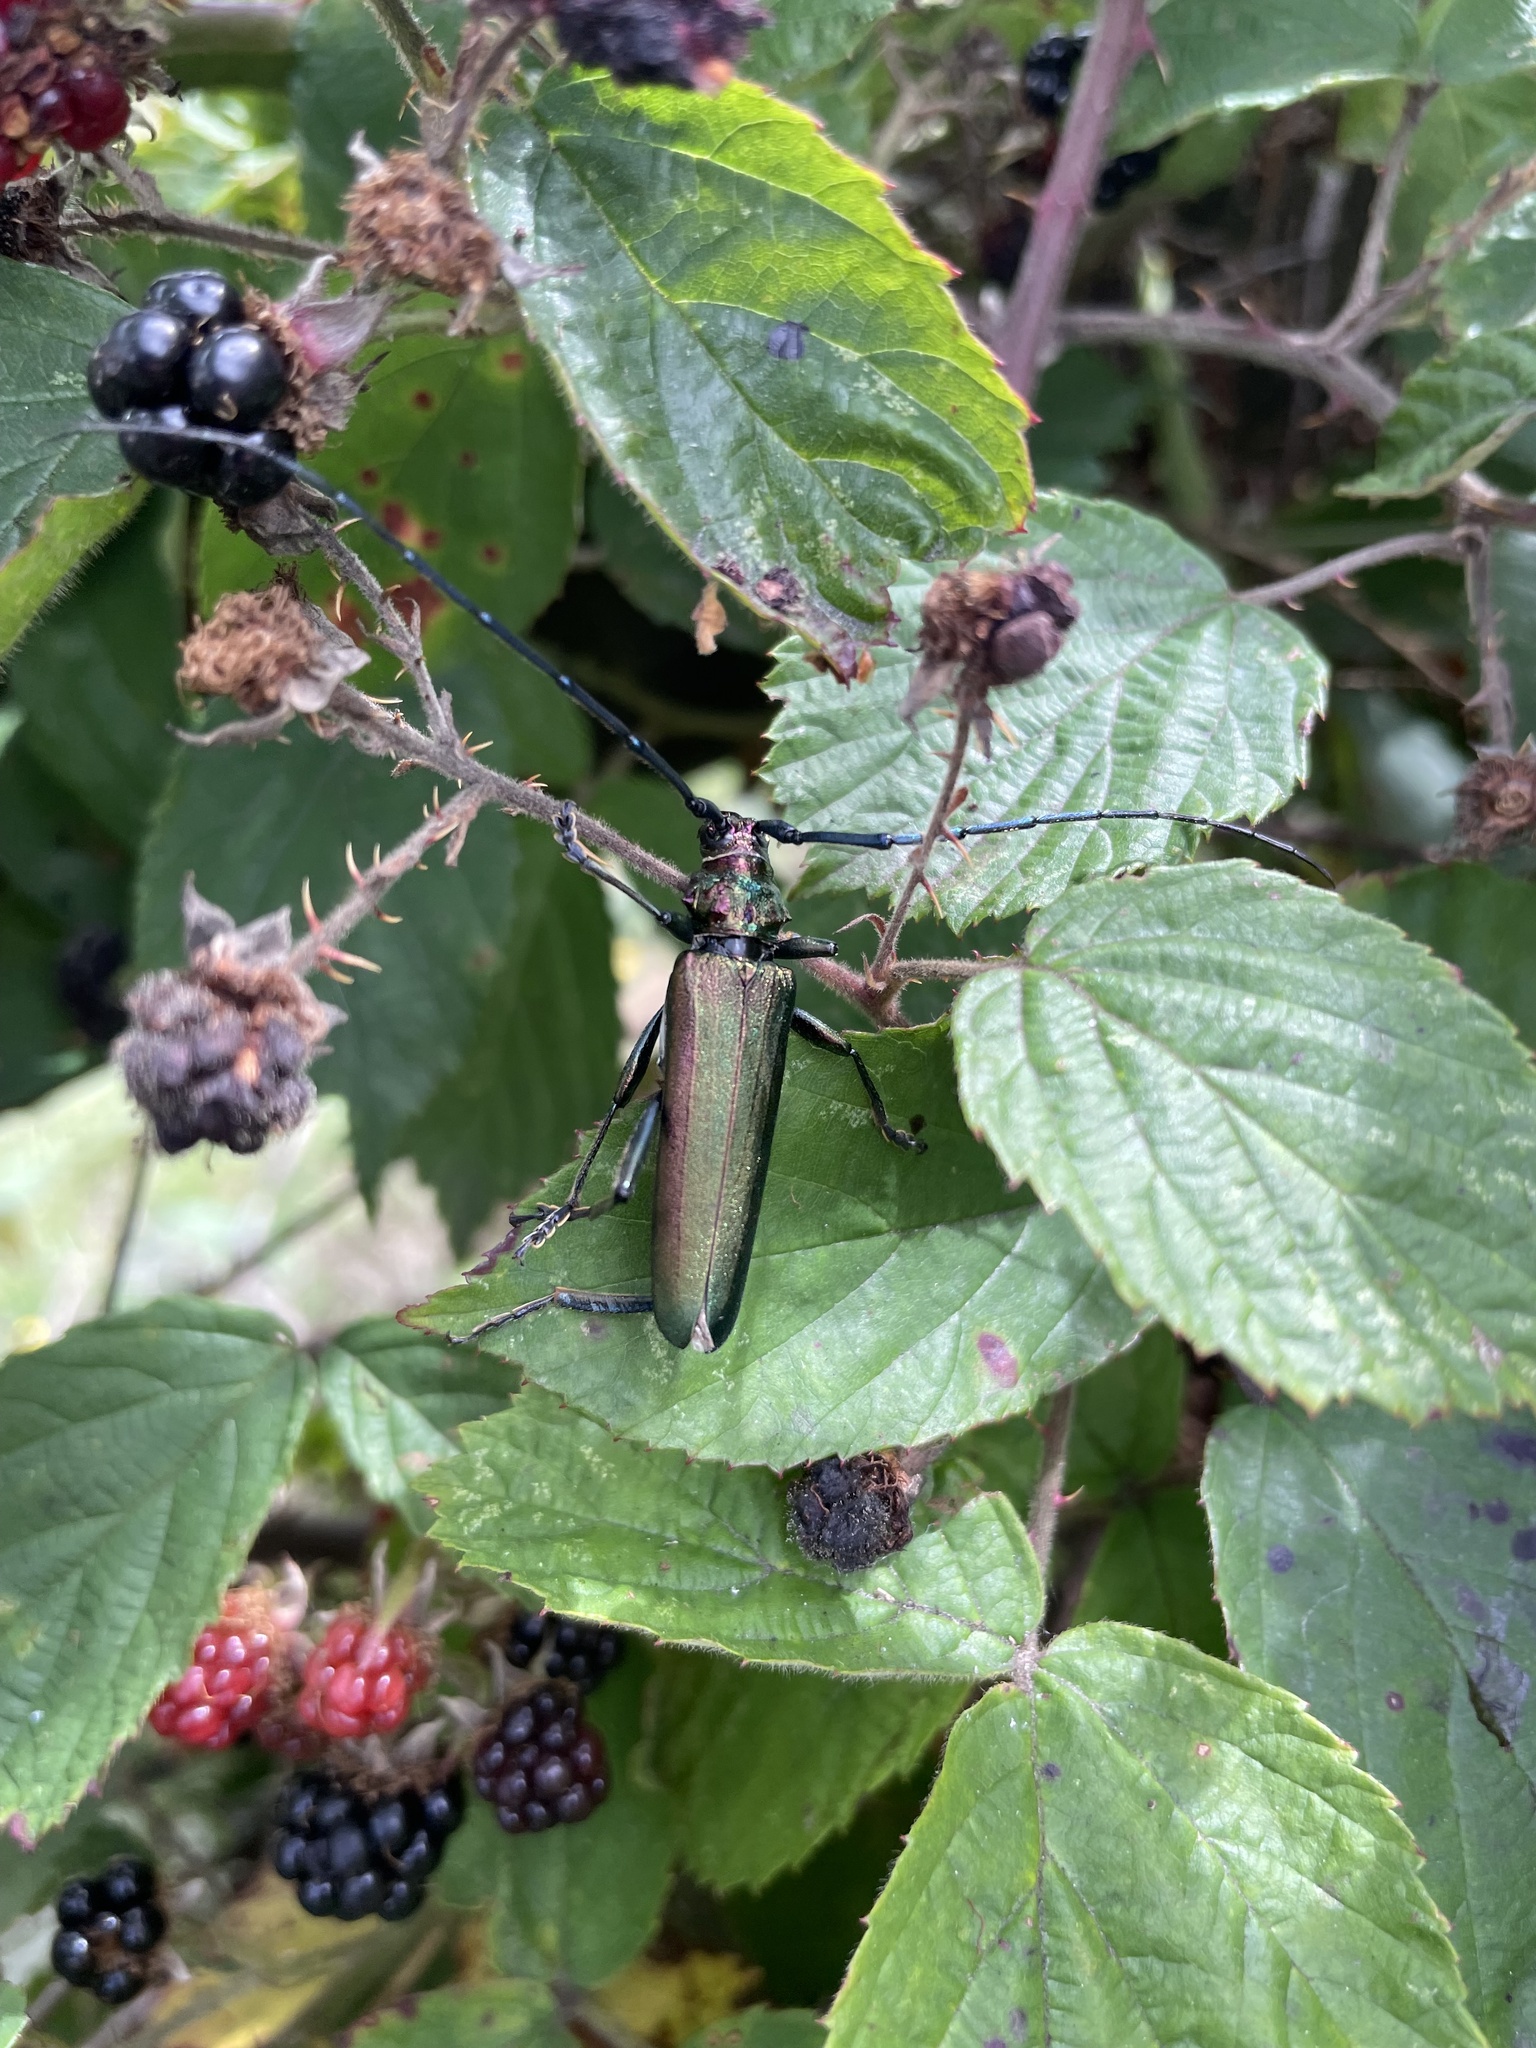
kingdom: Animalia
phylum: Arthropoda
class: Insecta
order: Coleoptera
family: Cerambycidae
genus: Aromia
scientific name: Aromia moschata
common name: Musk beetle
